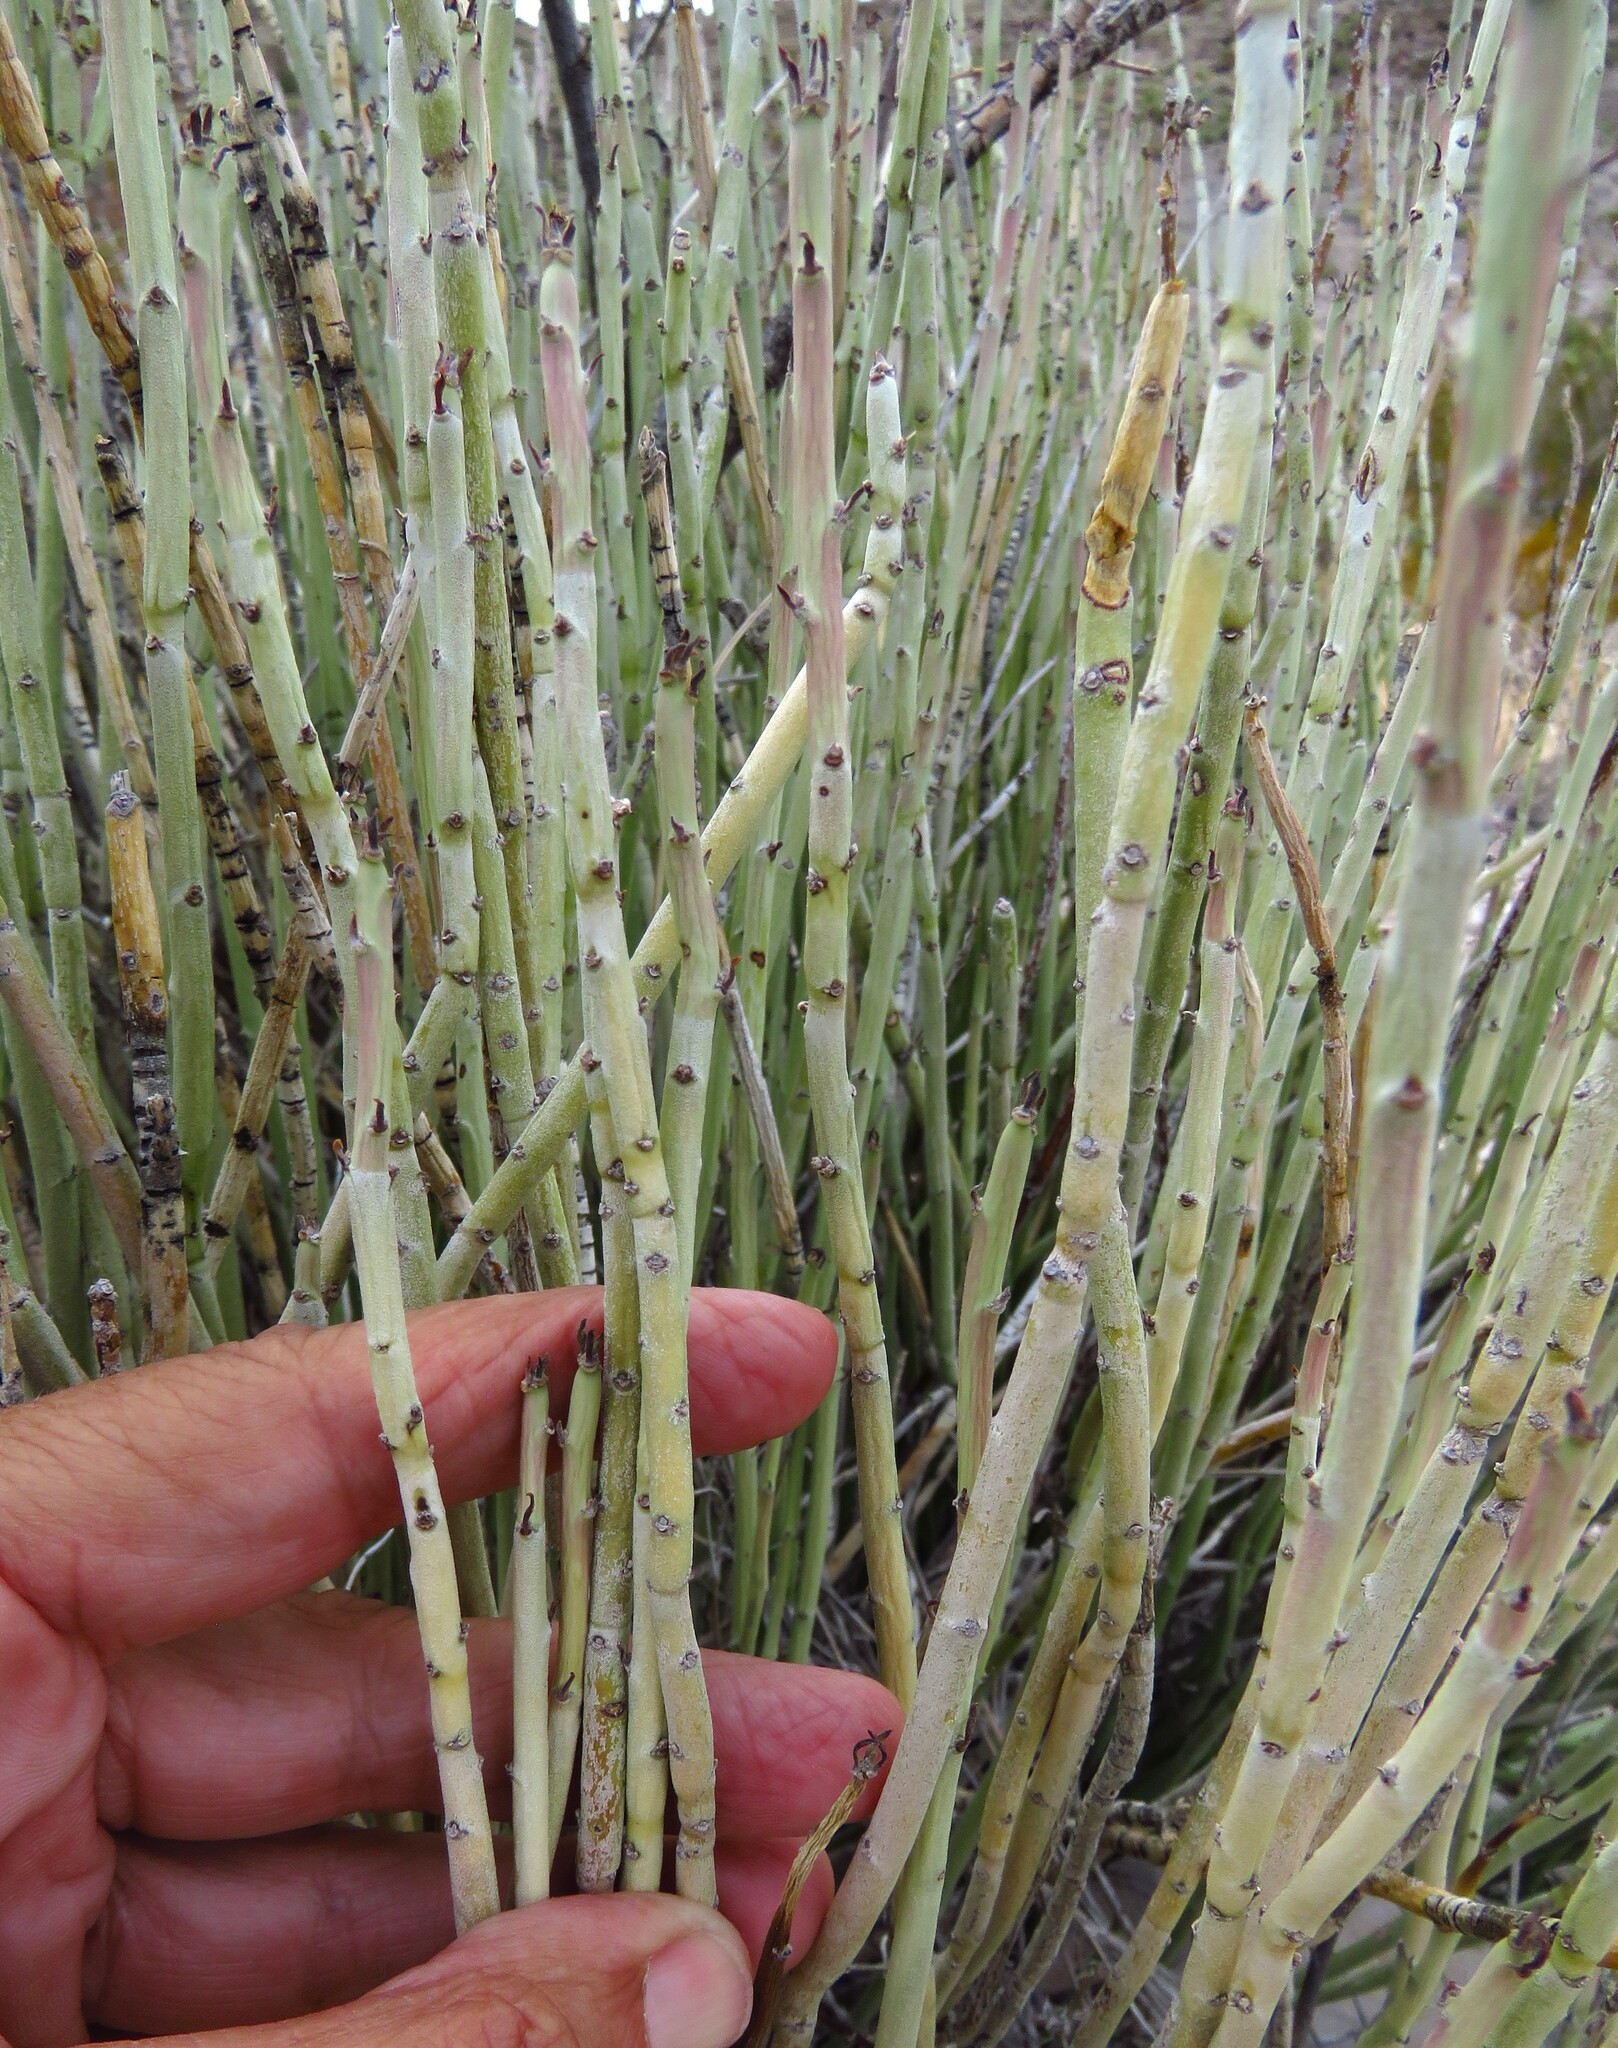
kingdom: Plantae
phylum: Tracheophyta
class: Magnoliopsida
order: Malpighiales
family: Euphorbiaceae
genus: Euphorbia
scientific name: Euphorbia antisyphilitica
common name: Candelilla
